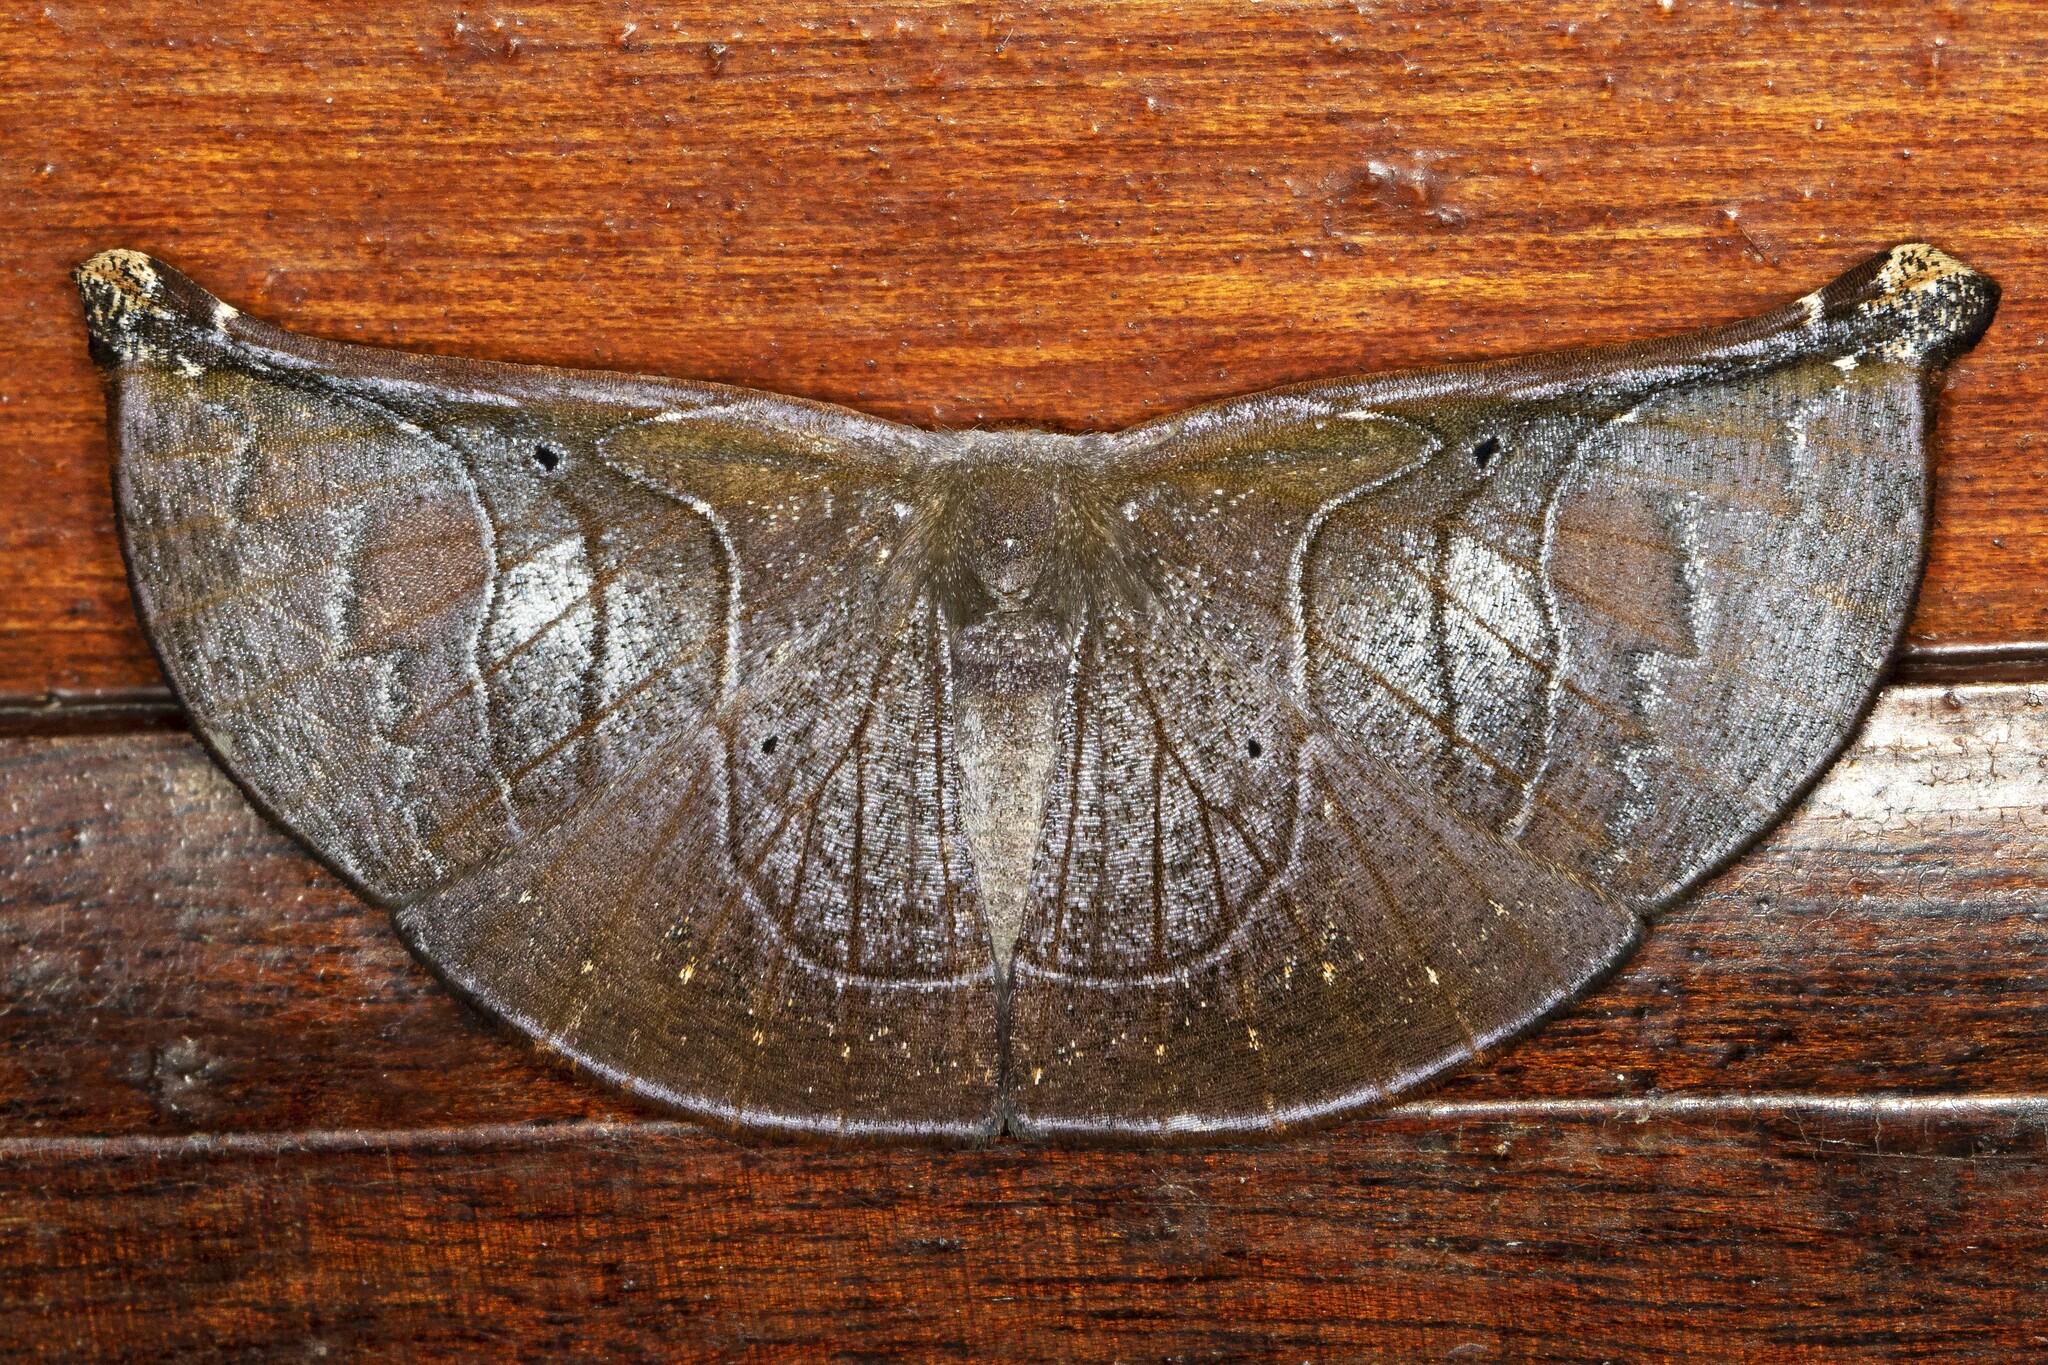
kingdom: Animalia
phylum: Arthropoda
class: Insecta
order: Lepidoptera
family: Geometridae
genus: Cyphoedma
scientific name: Cyphoedma transvolutata
